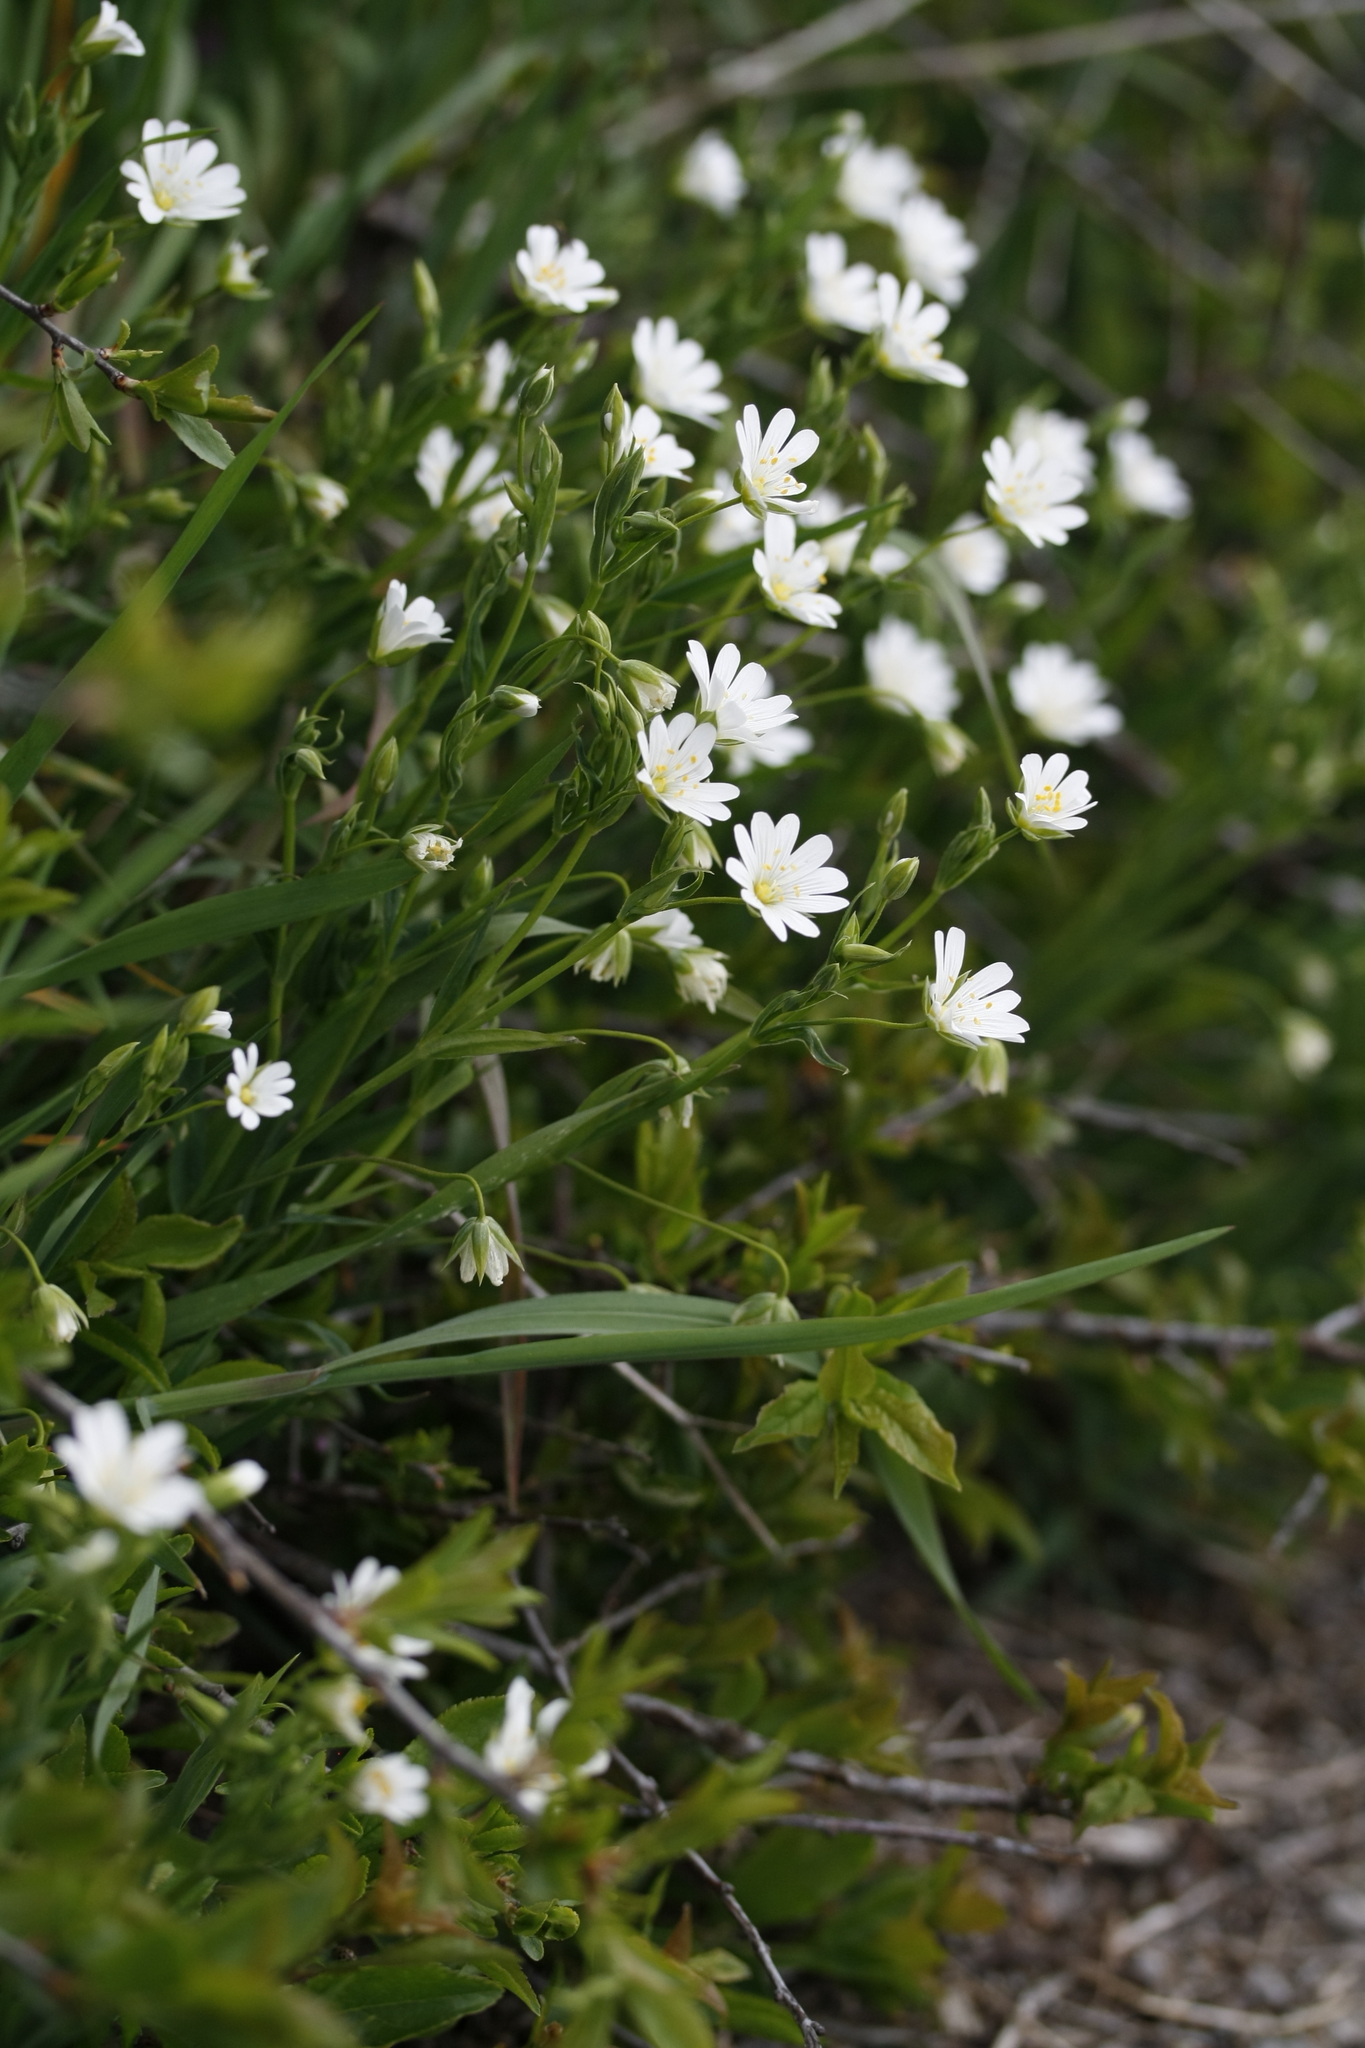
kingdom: Plantae
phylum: Tracheophyta
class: Magnoliopsida
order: Caryophyllales
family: Caryophyllaceae
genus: Rabelera
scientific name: Rabelera holostea
